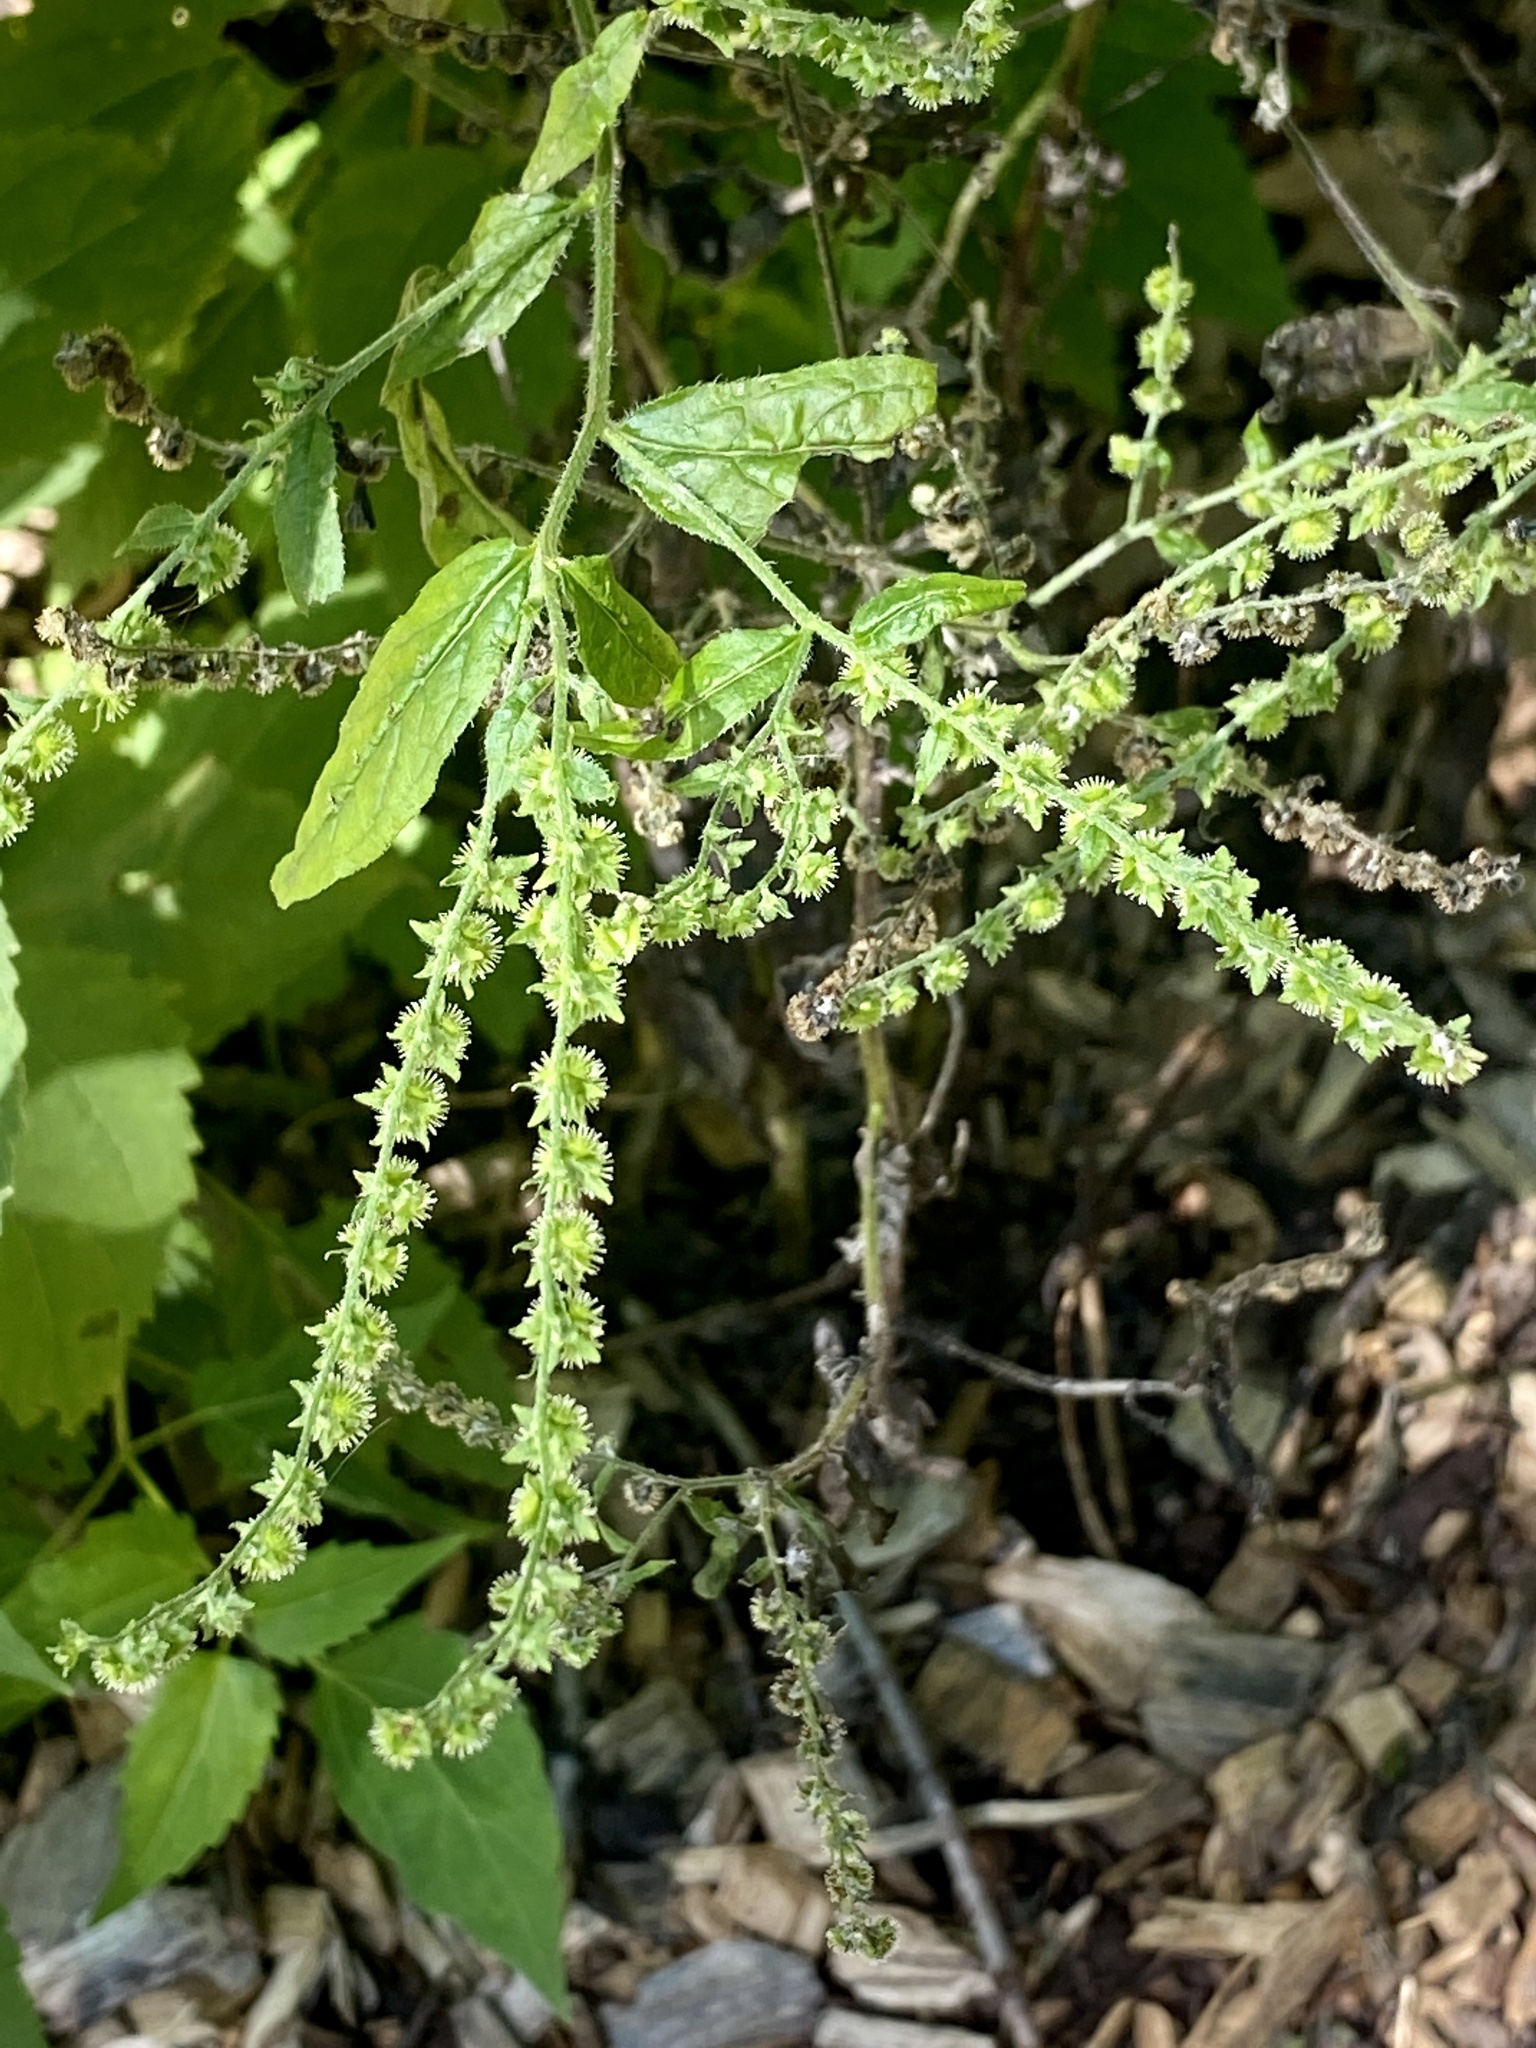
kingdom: Plantae
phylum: Tracheophyta
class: Magnoliopsida
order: Boraginales
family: Boraginaceae
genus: Hackelia
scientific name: Hackelia virginiana
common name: Beggar's-lice
